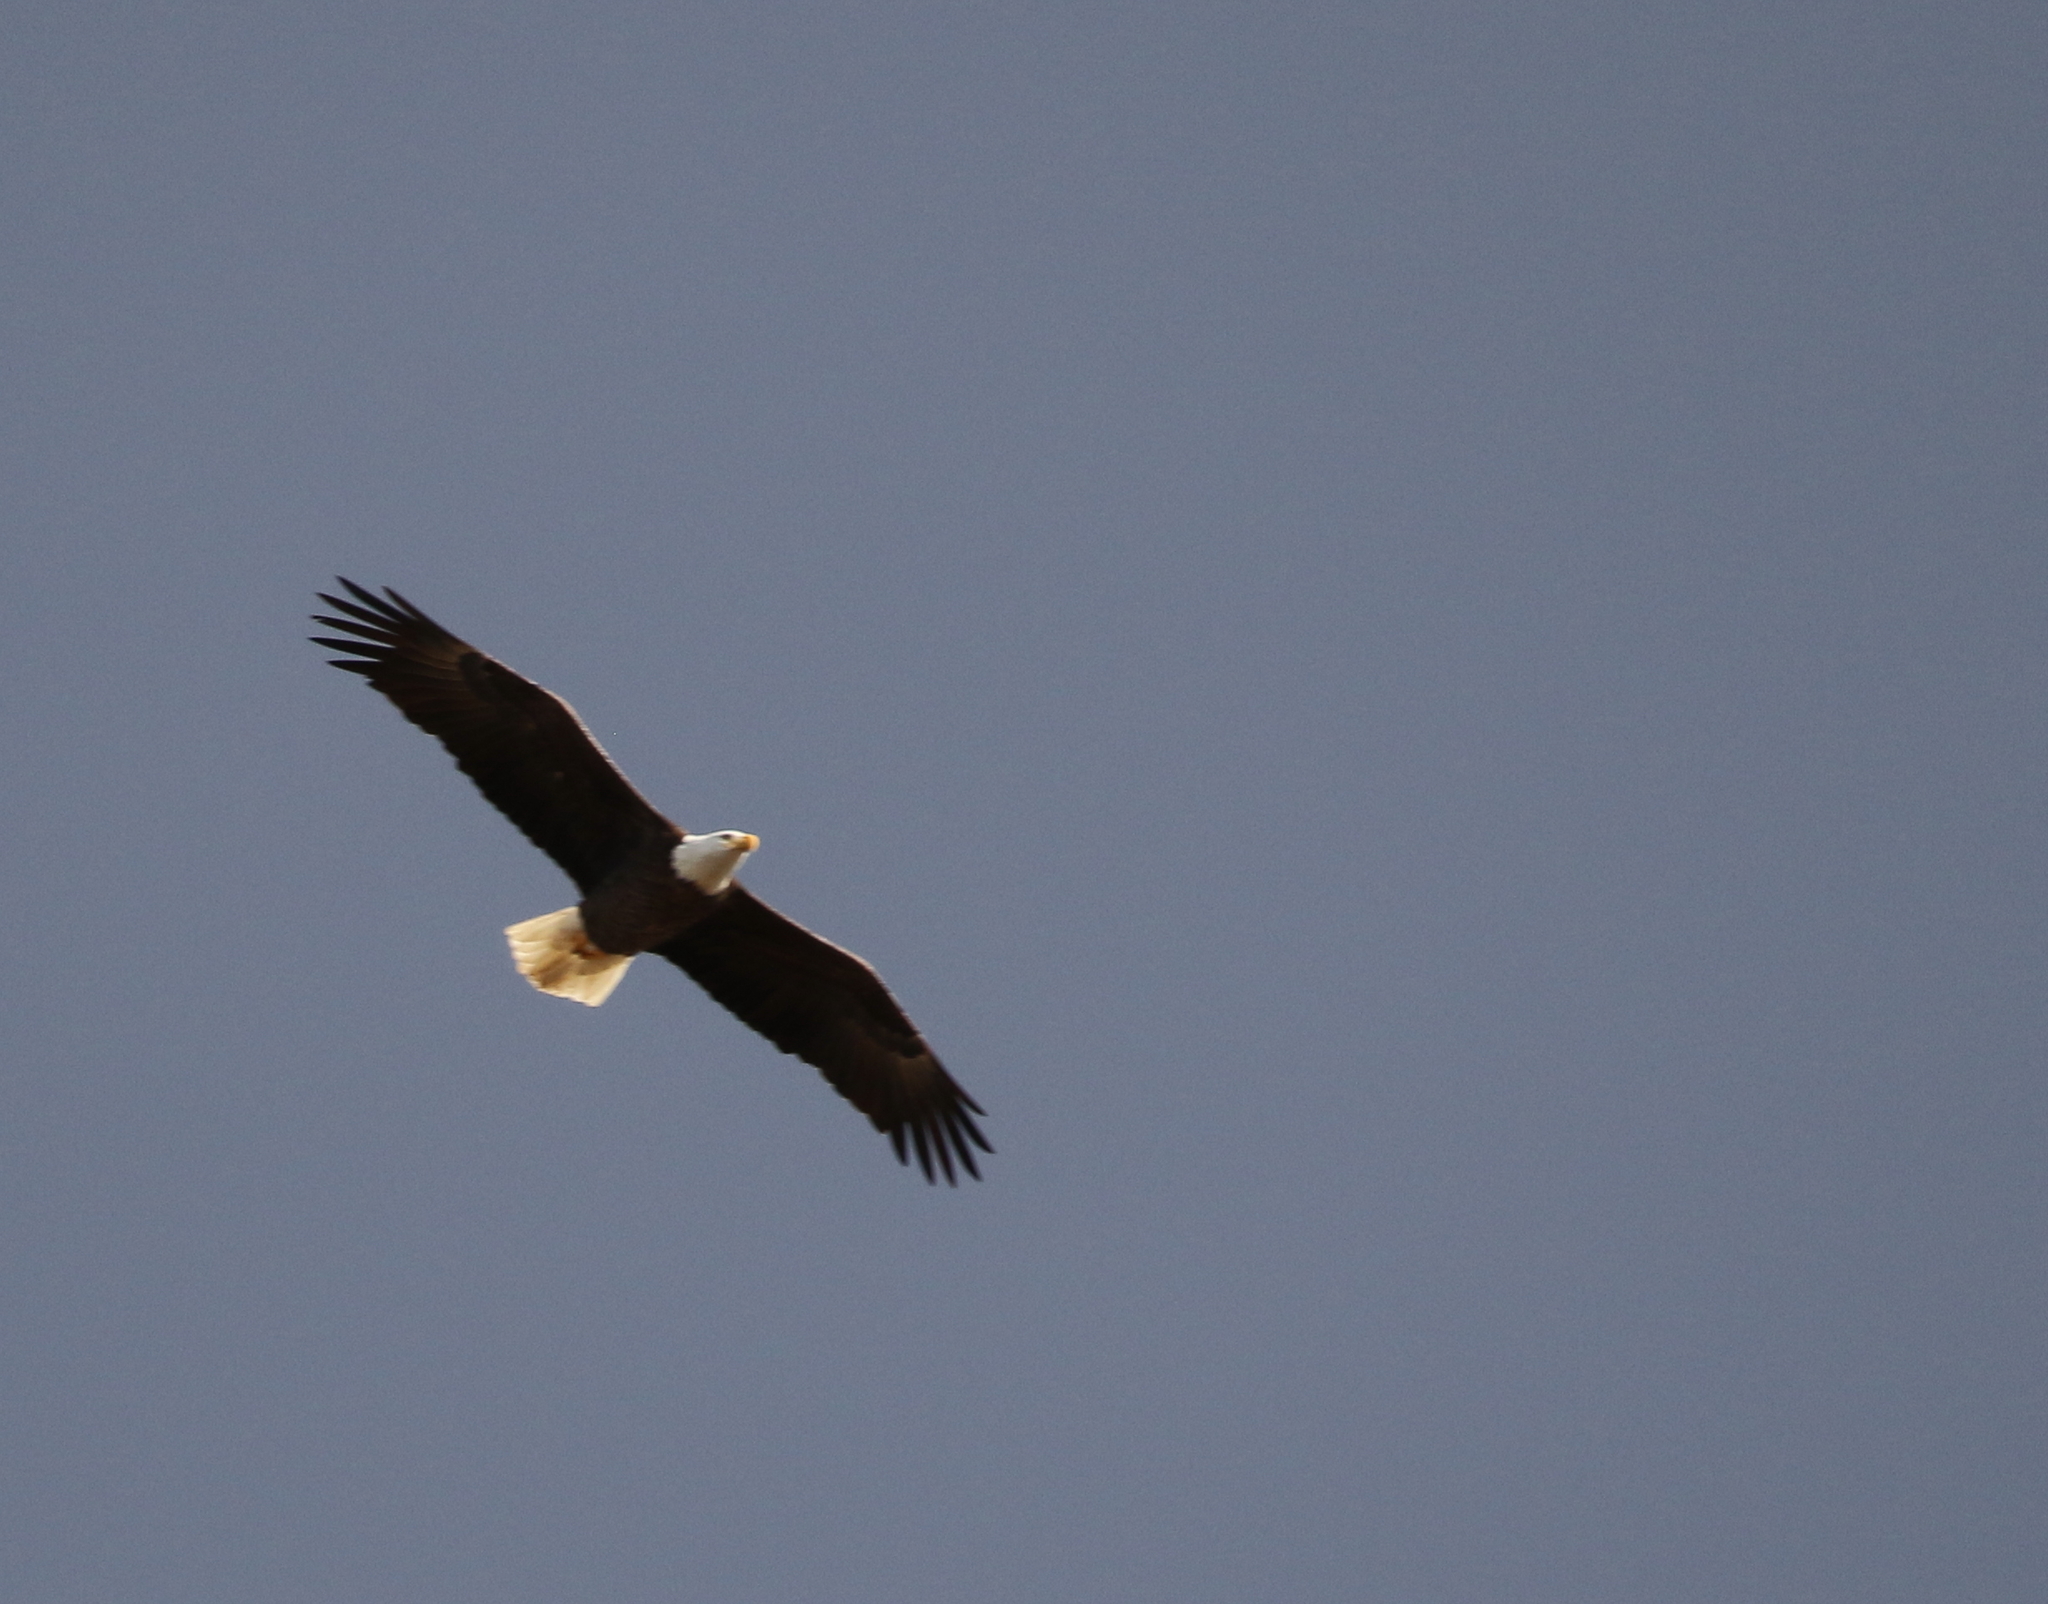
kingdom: Animalia
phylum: Chordata
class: Aves
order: Accipitriformes
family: Accipitridae
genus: Haliaeetus
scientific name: Haliaeetus leucocephalus
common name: Bald eagle
